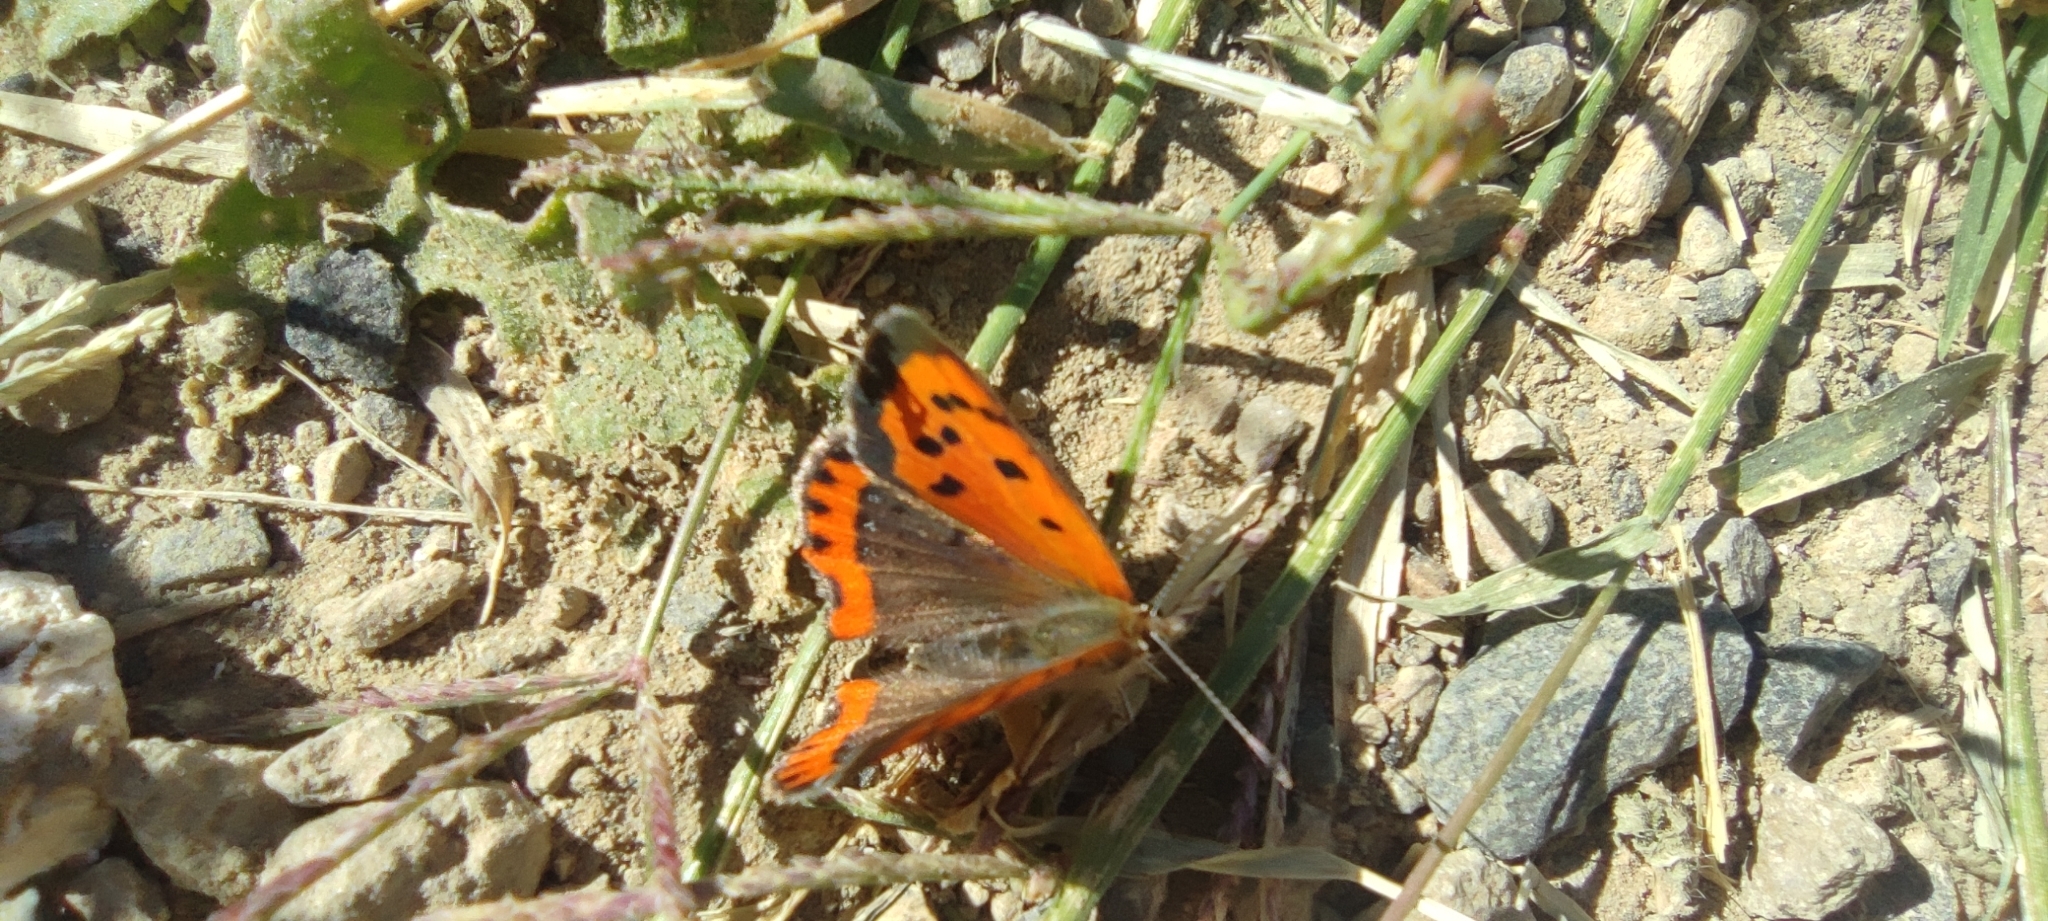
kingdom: Animalia
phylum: Arthropoda
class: Insecta
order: Lepidoptera
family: Lycaenidae
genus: Lycaena
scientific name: Lycaena phlaeas
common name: Small copper
